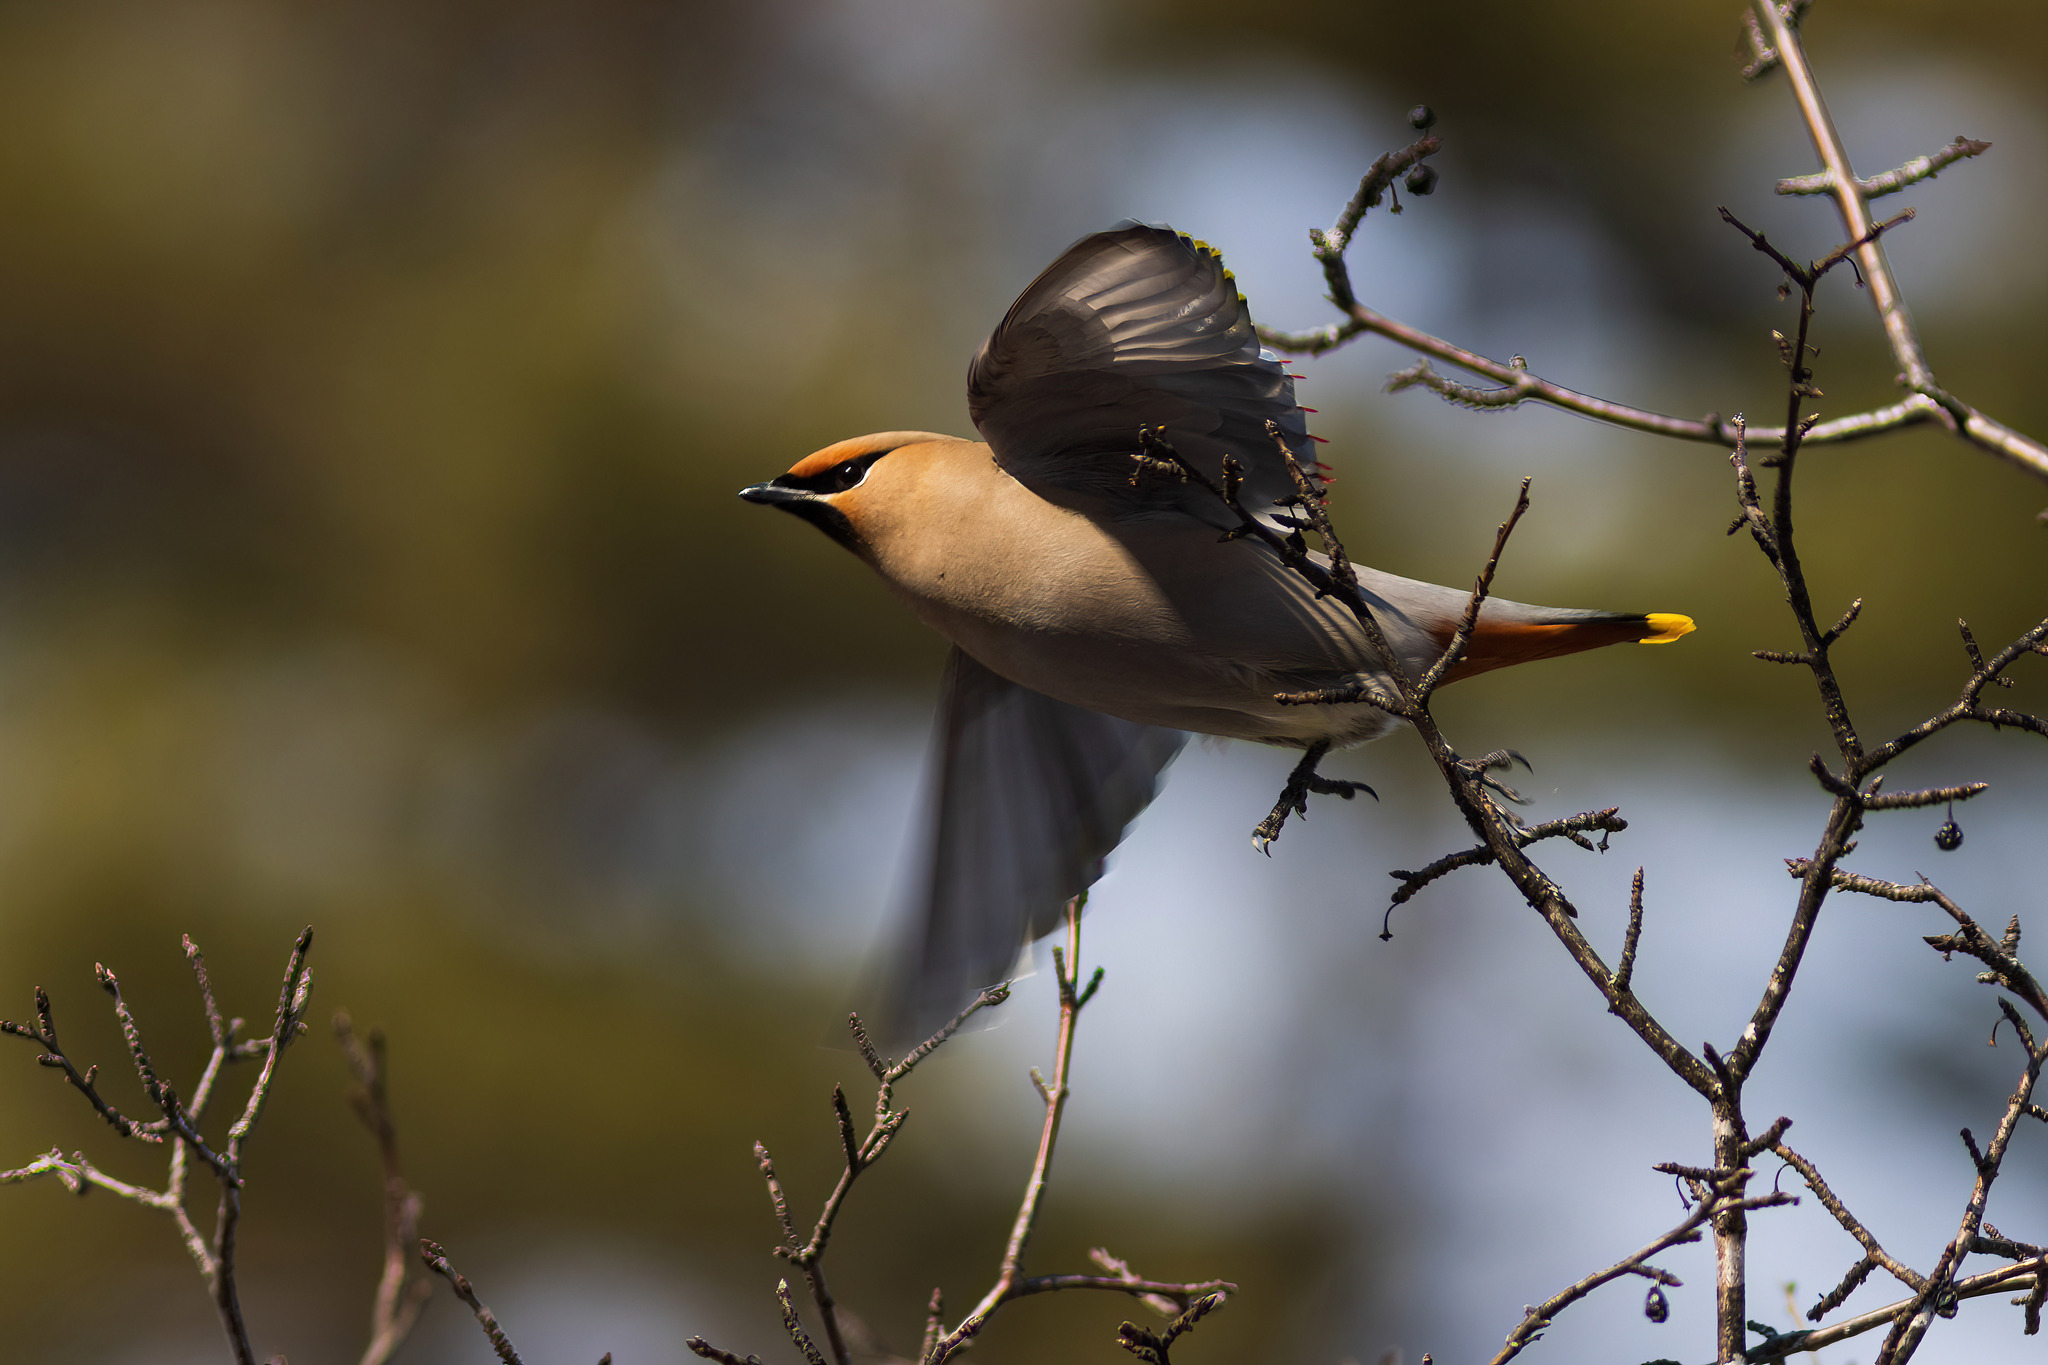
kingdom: Animalia
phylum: Chordata
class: Aves
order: Passeriformes
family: Bombycillidae
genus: Bombycilla
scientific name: Bombycilla garrulus
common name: Bohemian waxwing
